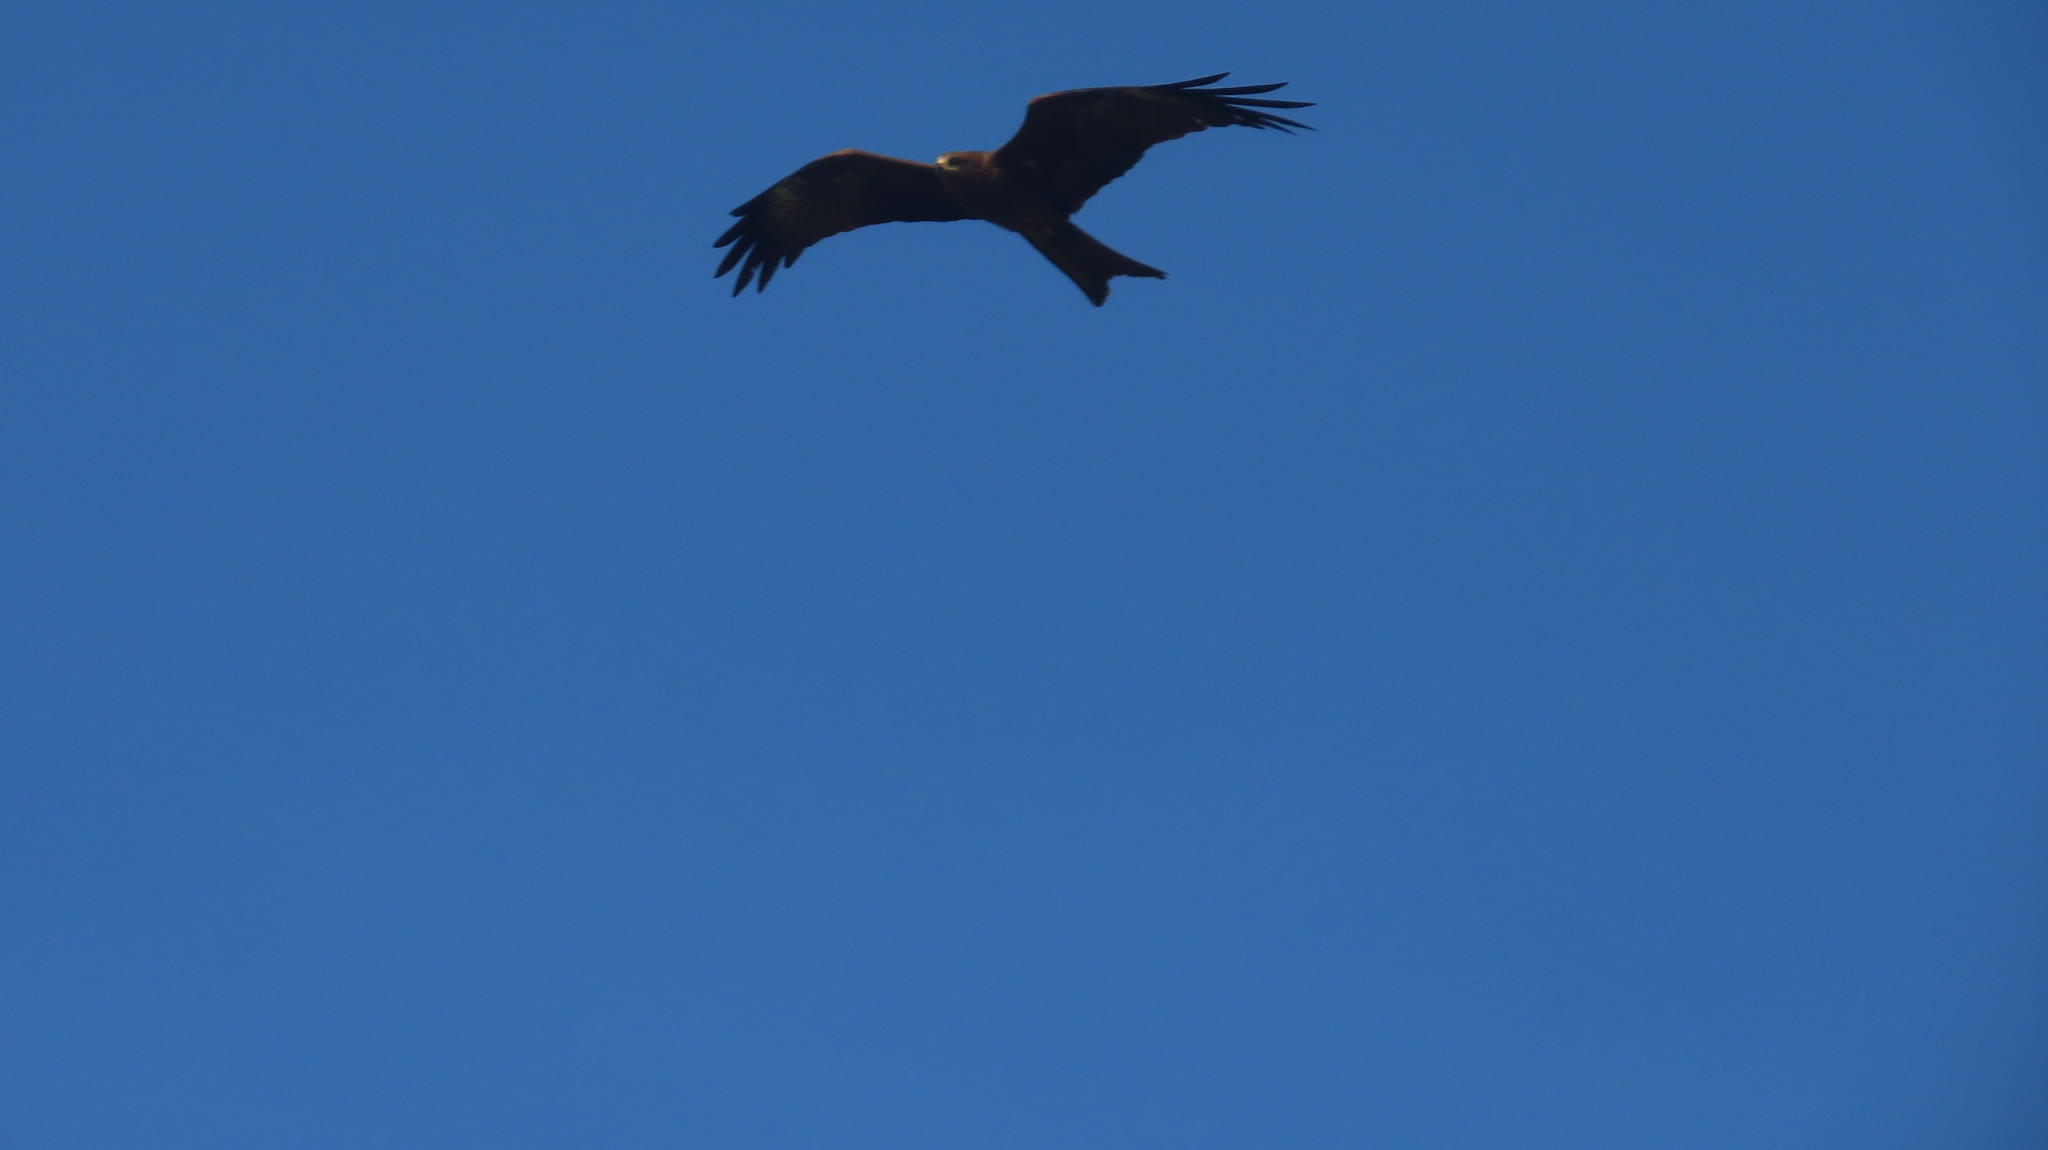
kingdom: Animalia
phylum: Chordata
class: Aves
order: Accipitriformes
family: Accipitridae
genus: Milvus
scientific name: Milvus migrans
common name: Black kite
